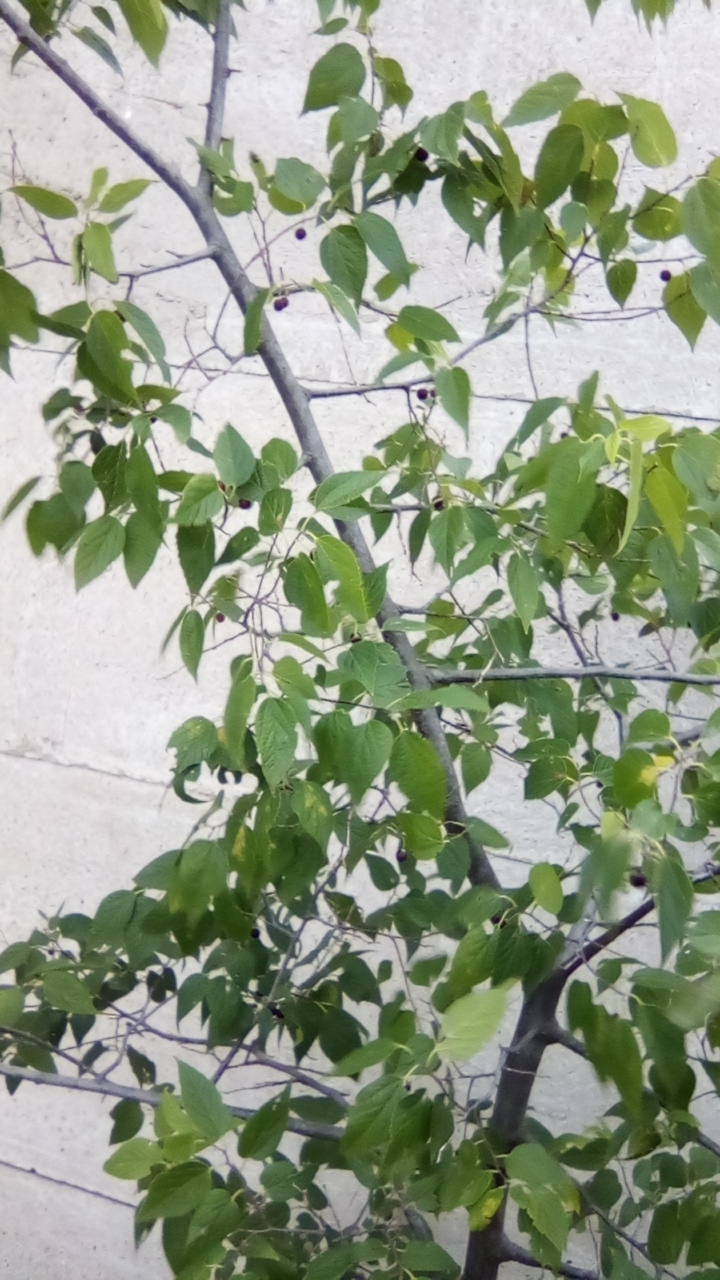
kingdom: Plantae
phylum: Tracheophyta
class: Magnoliopsida
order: Rosales
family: Cannabaceae
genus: Celtis
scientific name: Celtis glabrata
